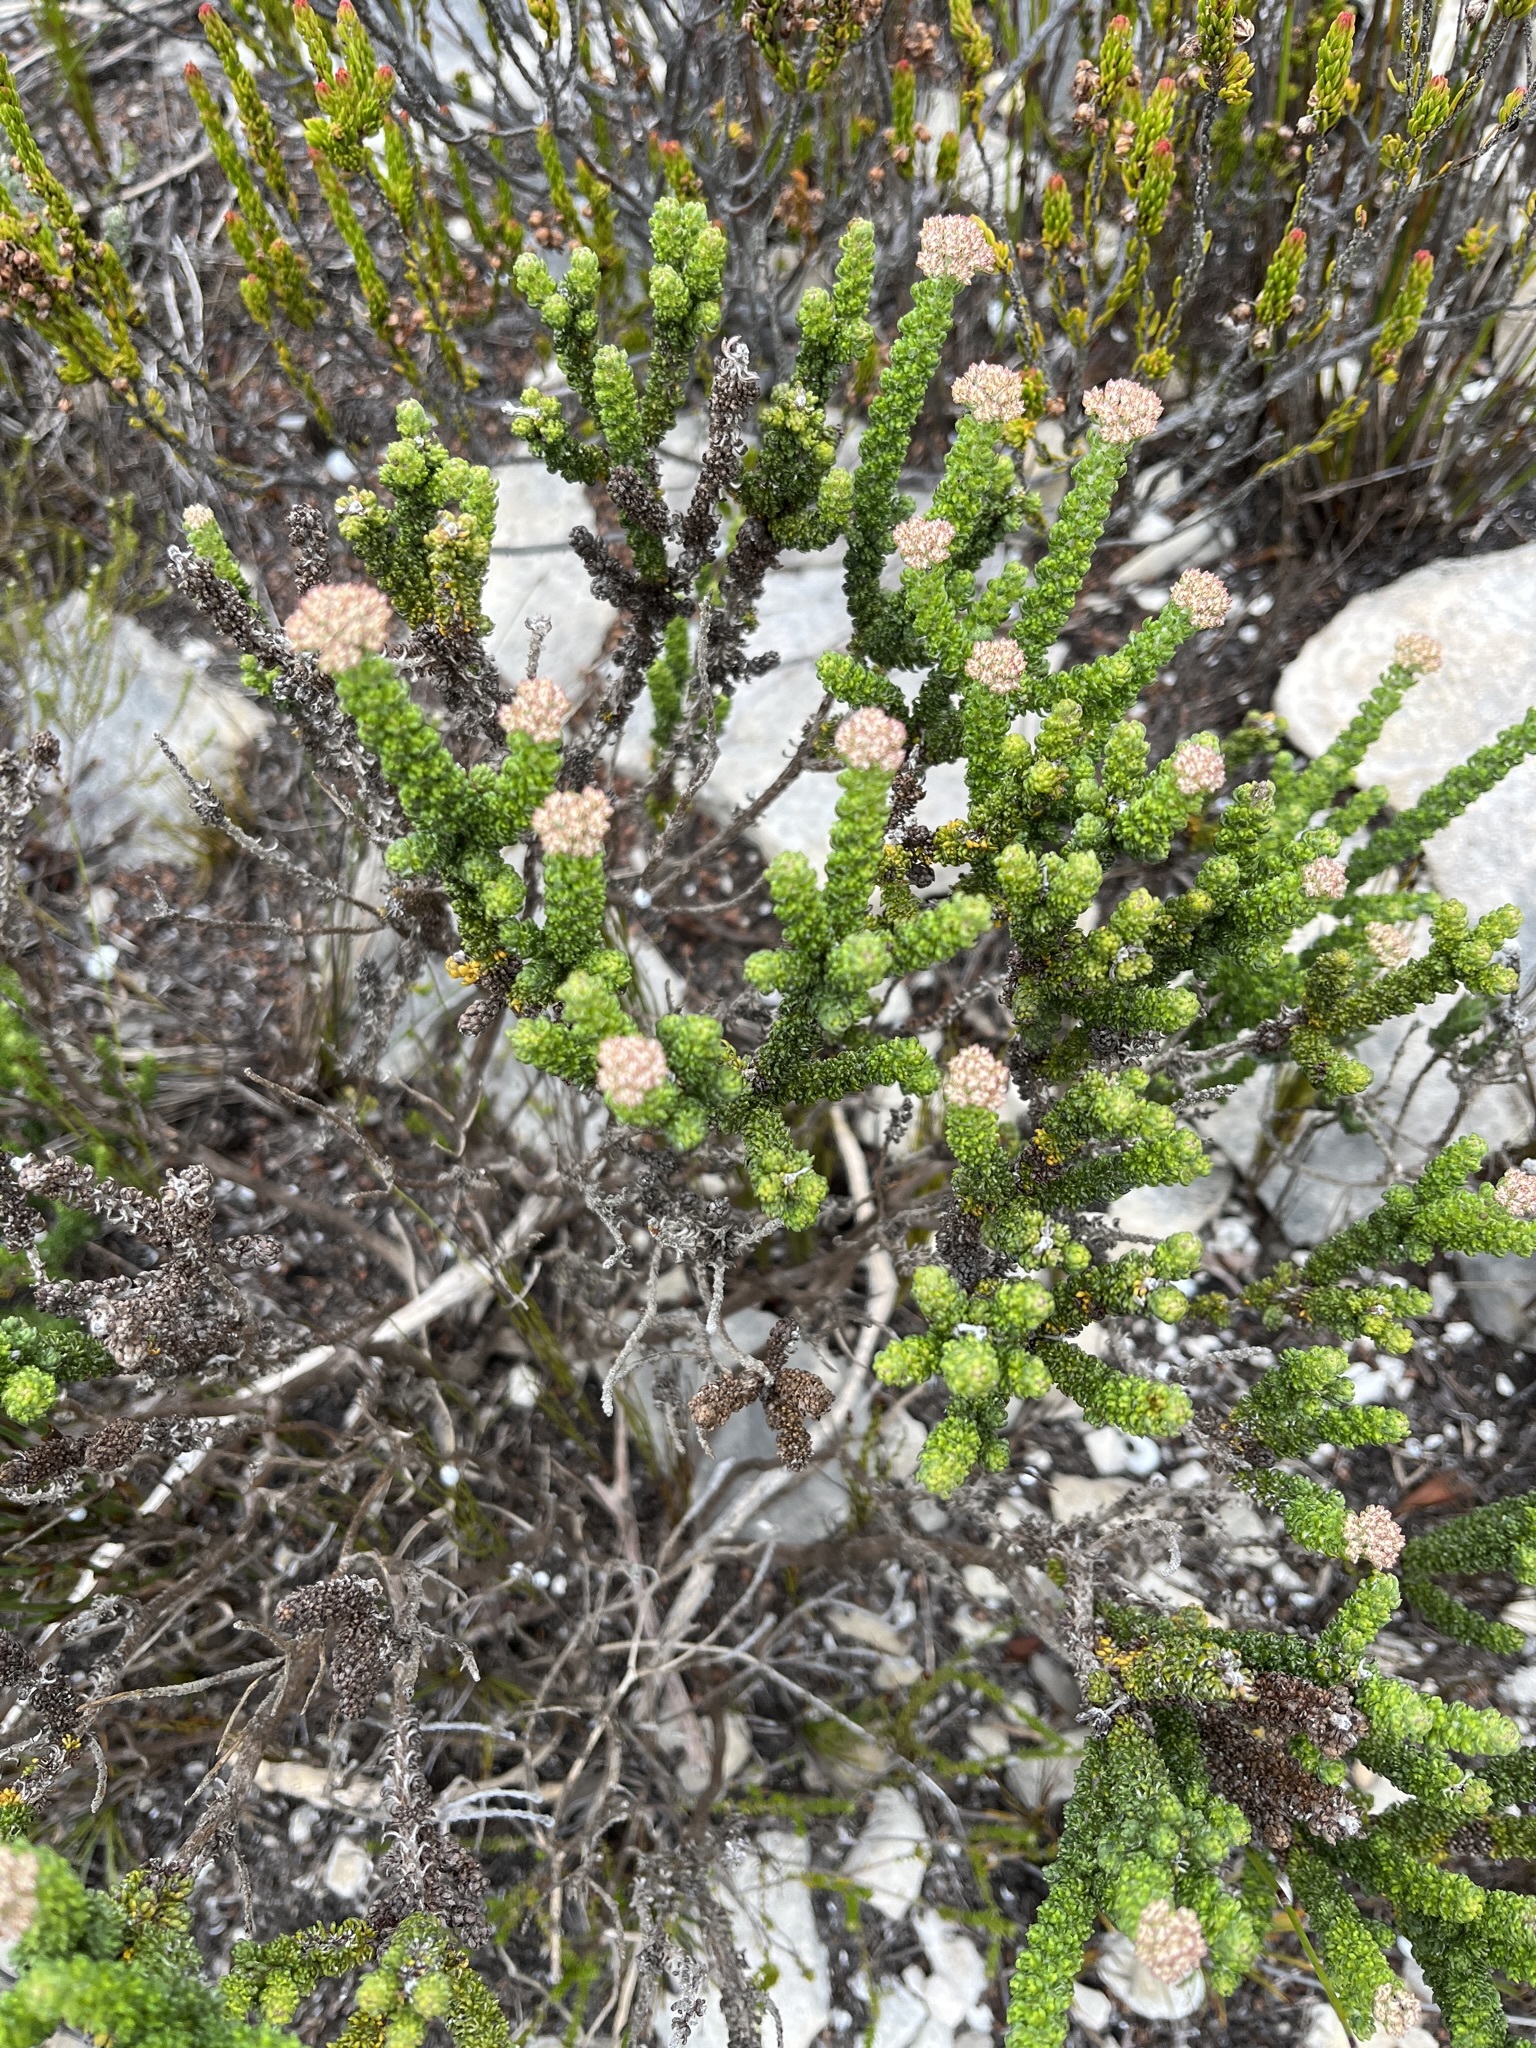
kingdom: Plantae
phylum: Tracheophyta
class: Magnoliopsida
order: Asterales
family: Asteraceae
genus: Metalasia
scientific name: Metalasia calcicola
